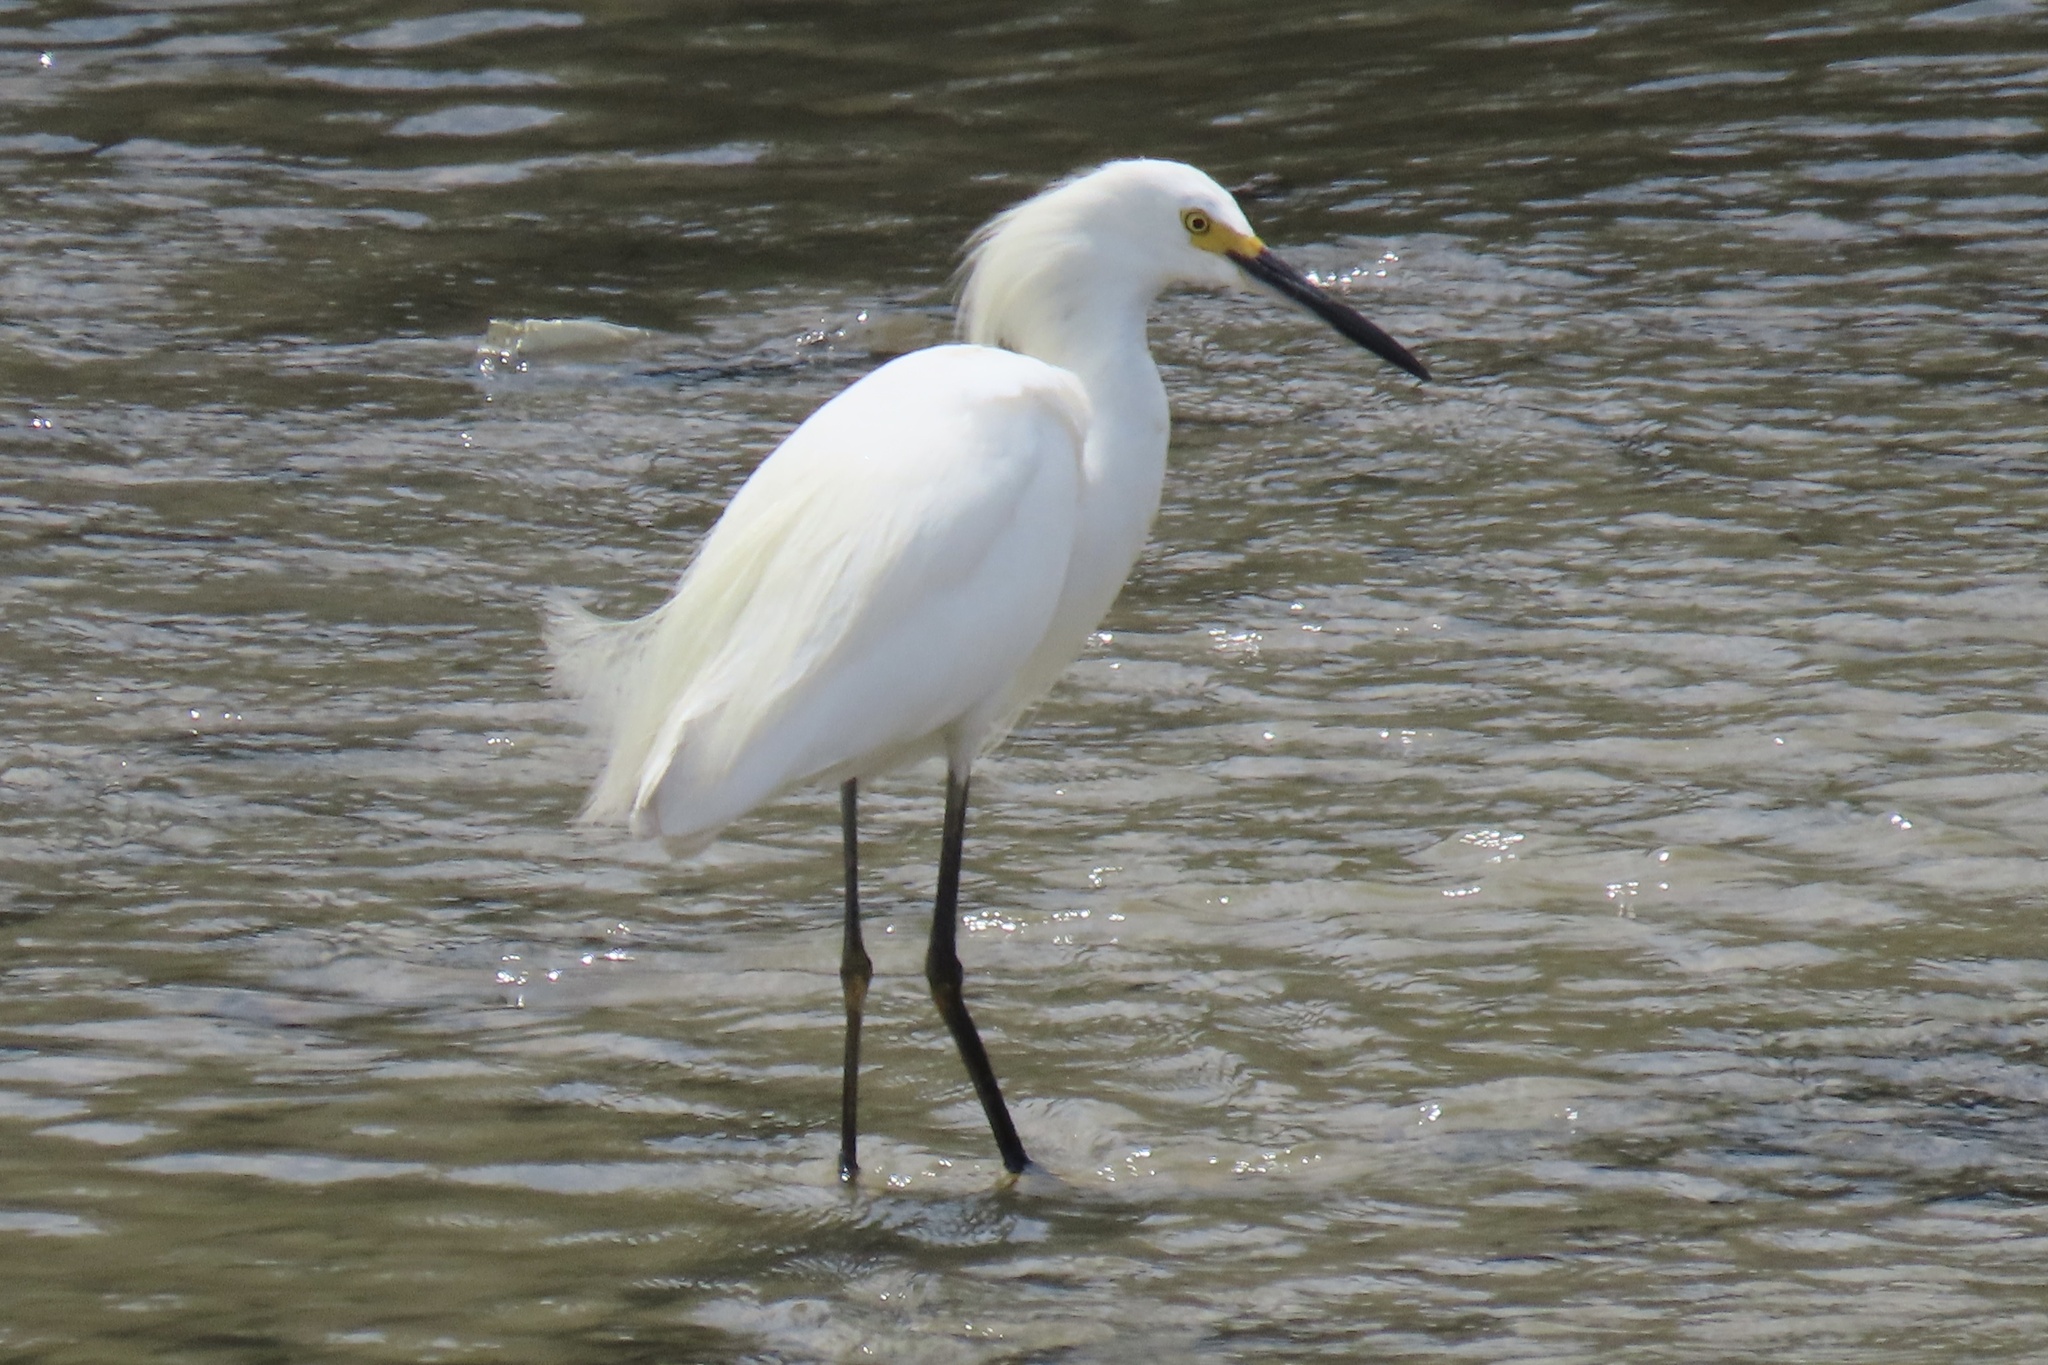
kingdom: Animalia
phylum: Chordata
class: Aves
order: Pelecaniformes
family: Ardeidae
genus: Egretta
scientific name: Egretta thula
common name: Snowy egret
